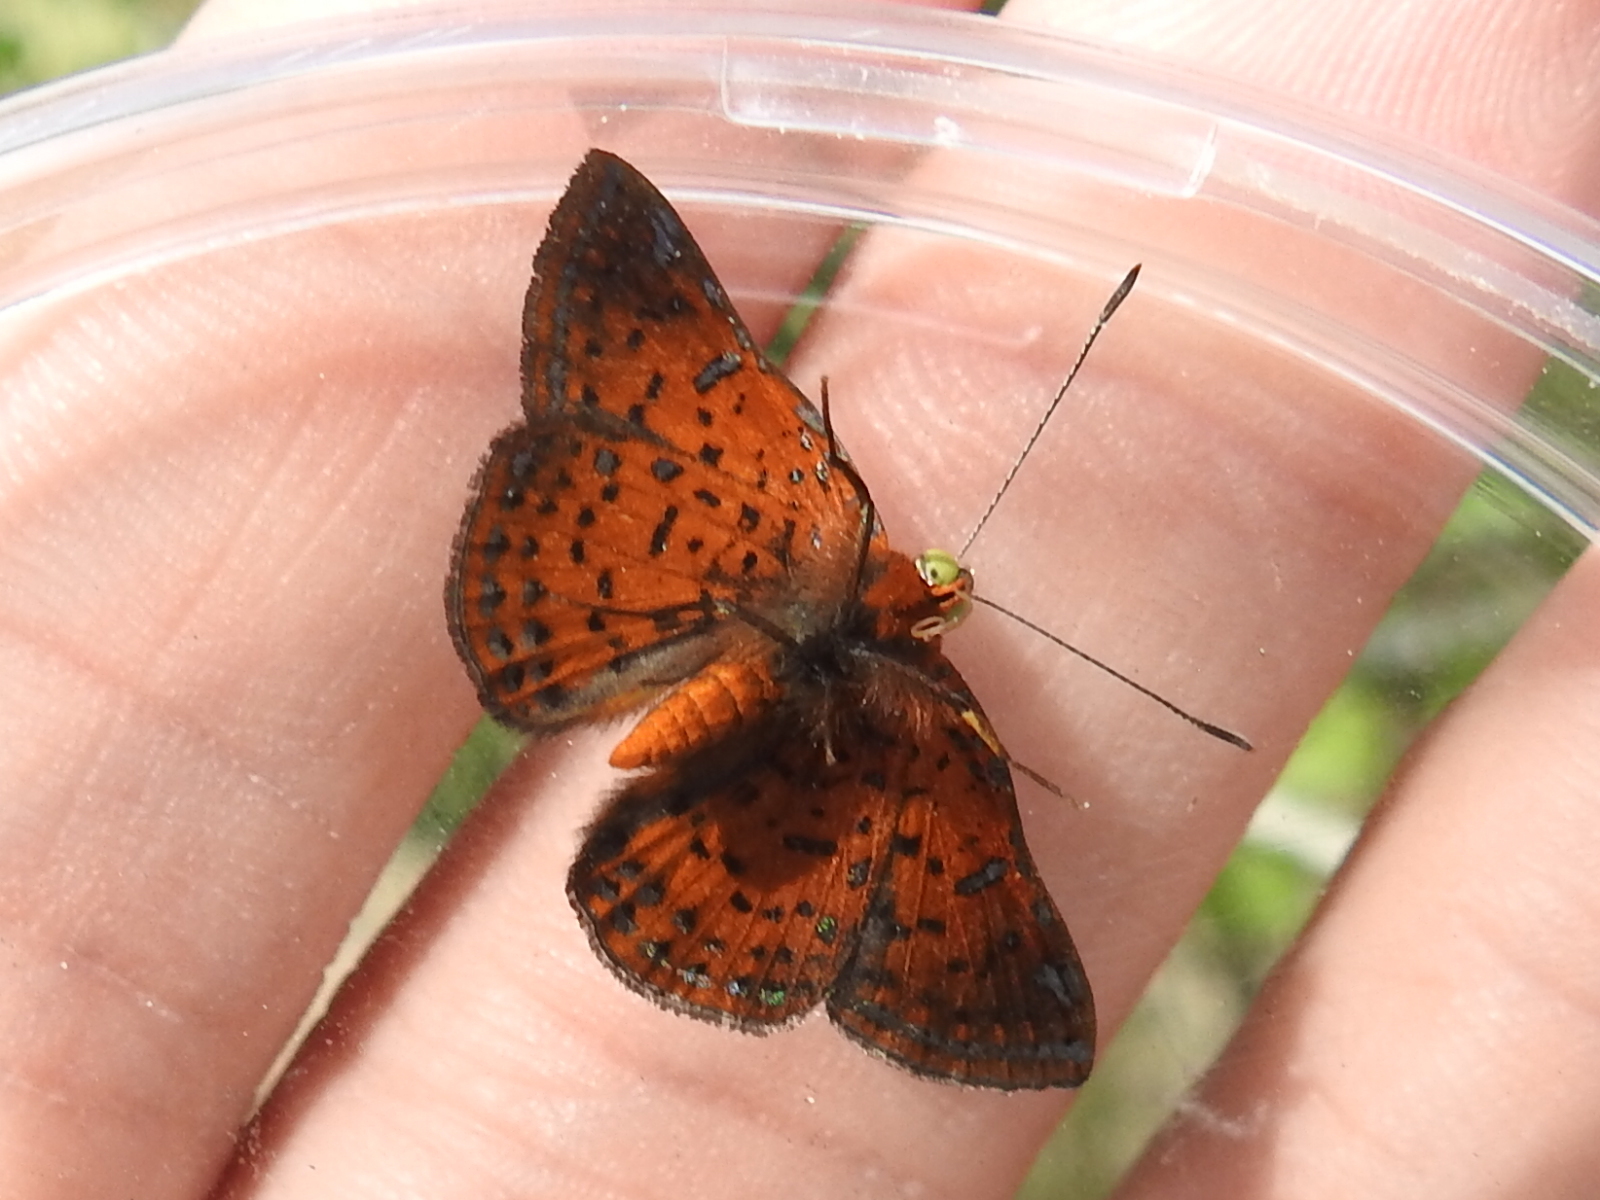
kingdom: Animalia
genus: Caria
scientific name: Caria ino
